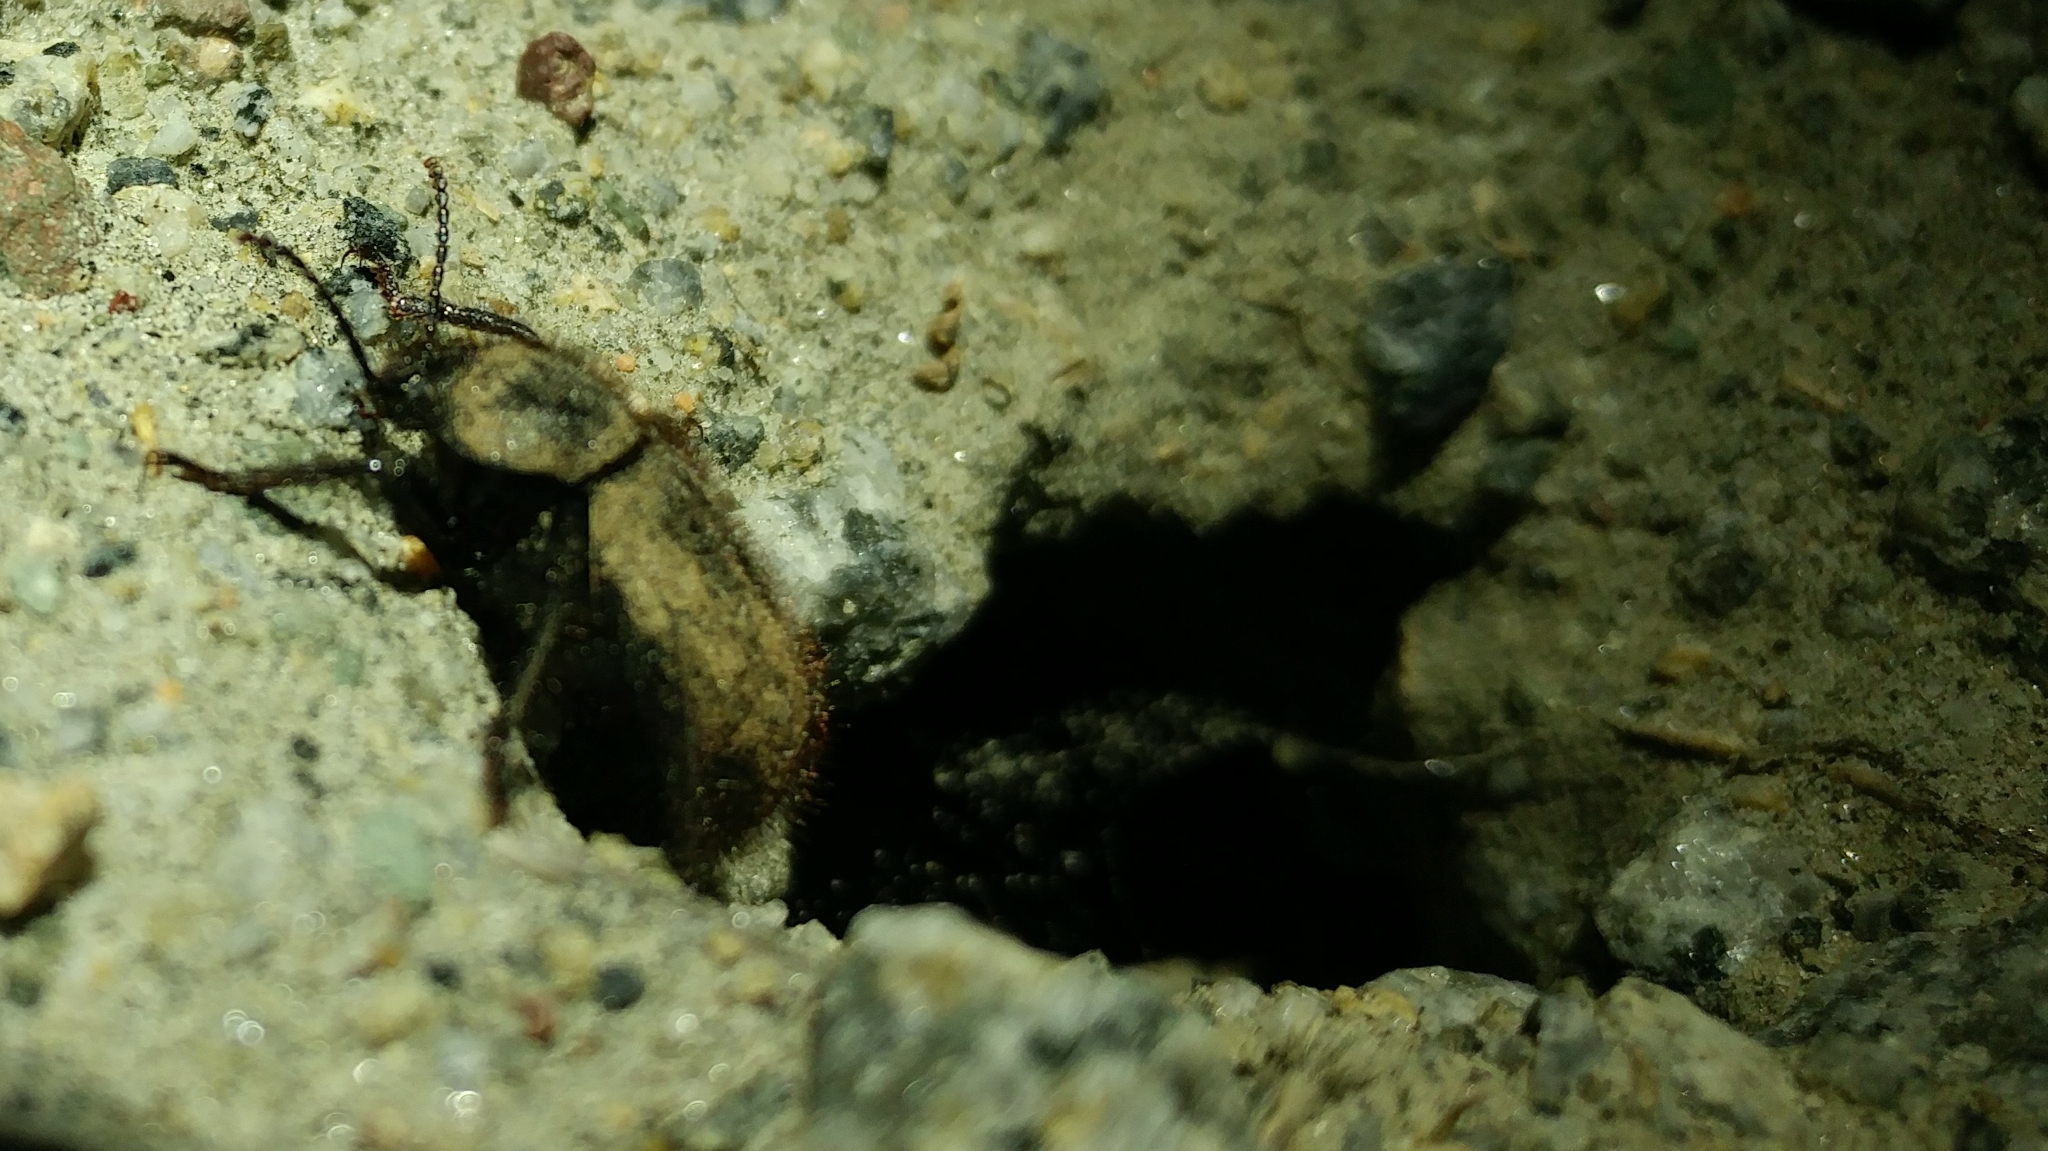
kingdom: Animalia
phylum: Arthropoda
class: Insecta
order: Coleoptera
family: Tenebrionidae
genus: Eleodes
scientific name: Eleodes osculans
